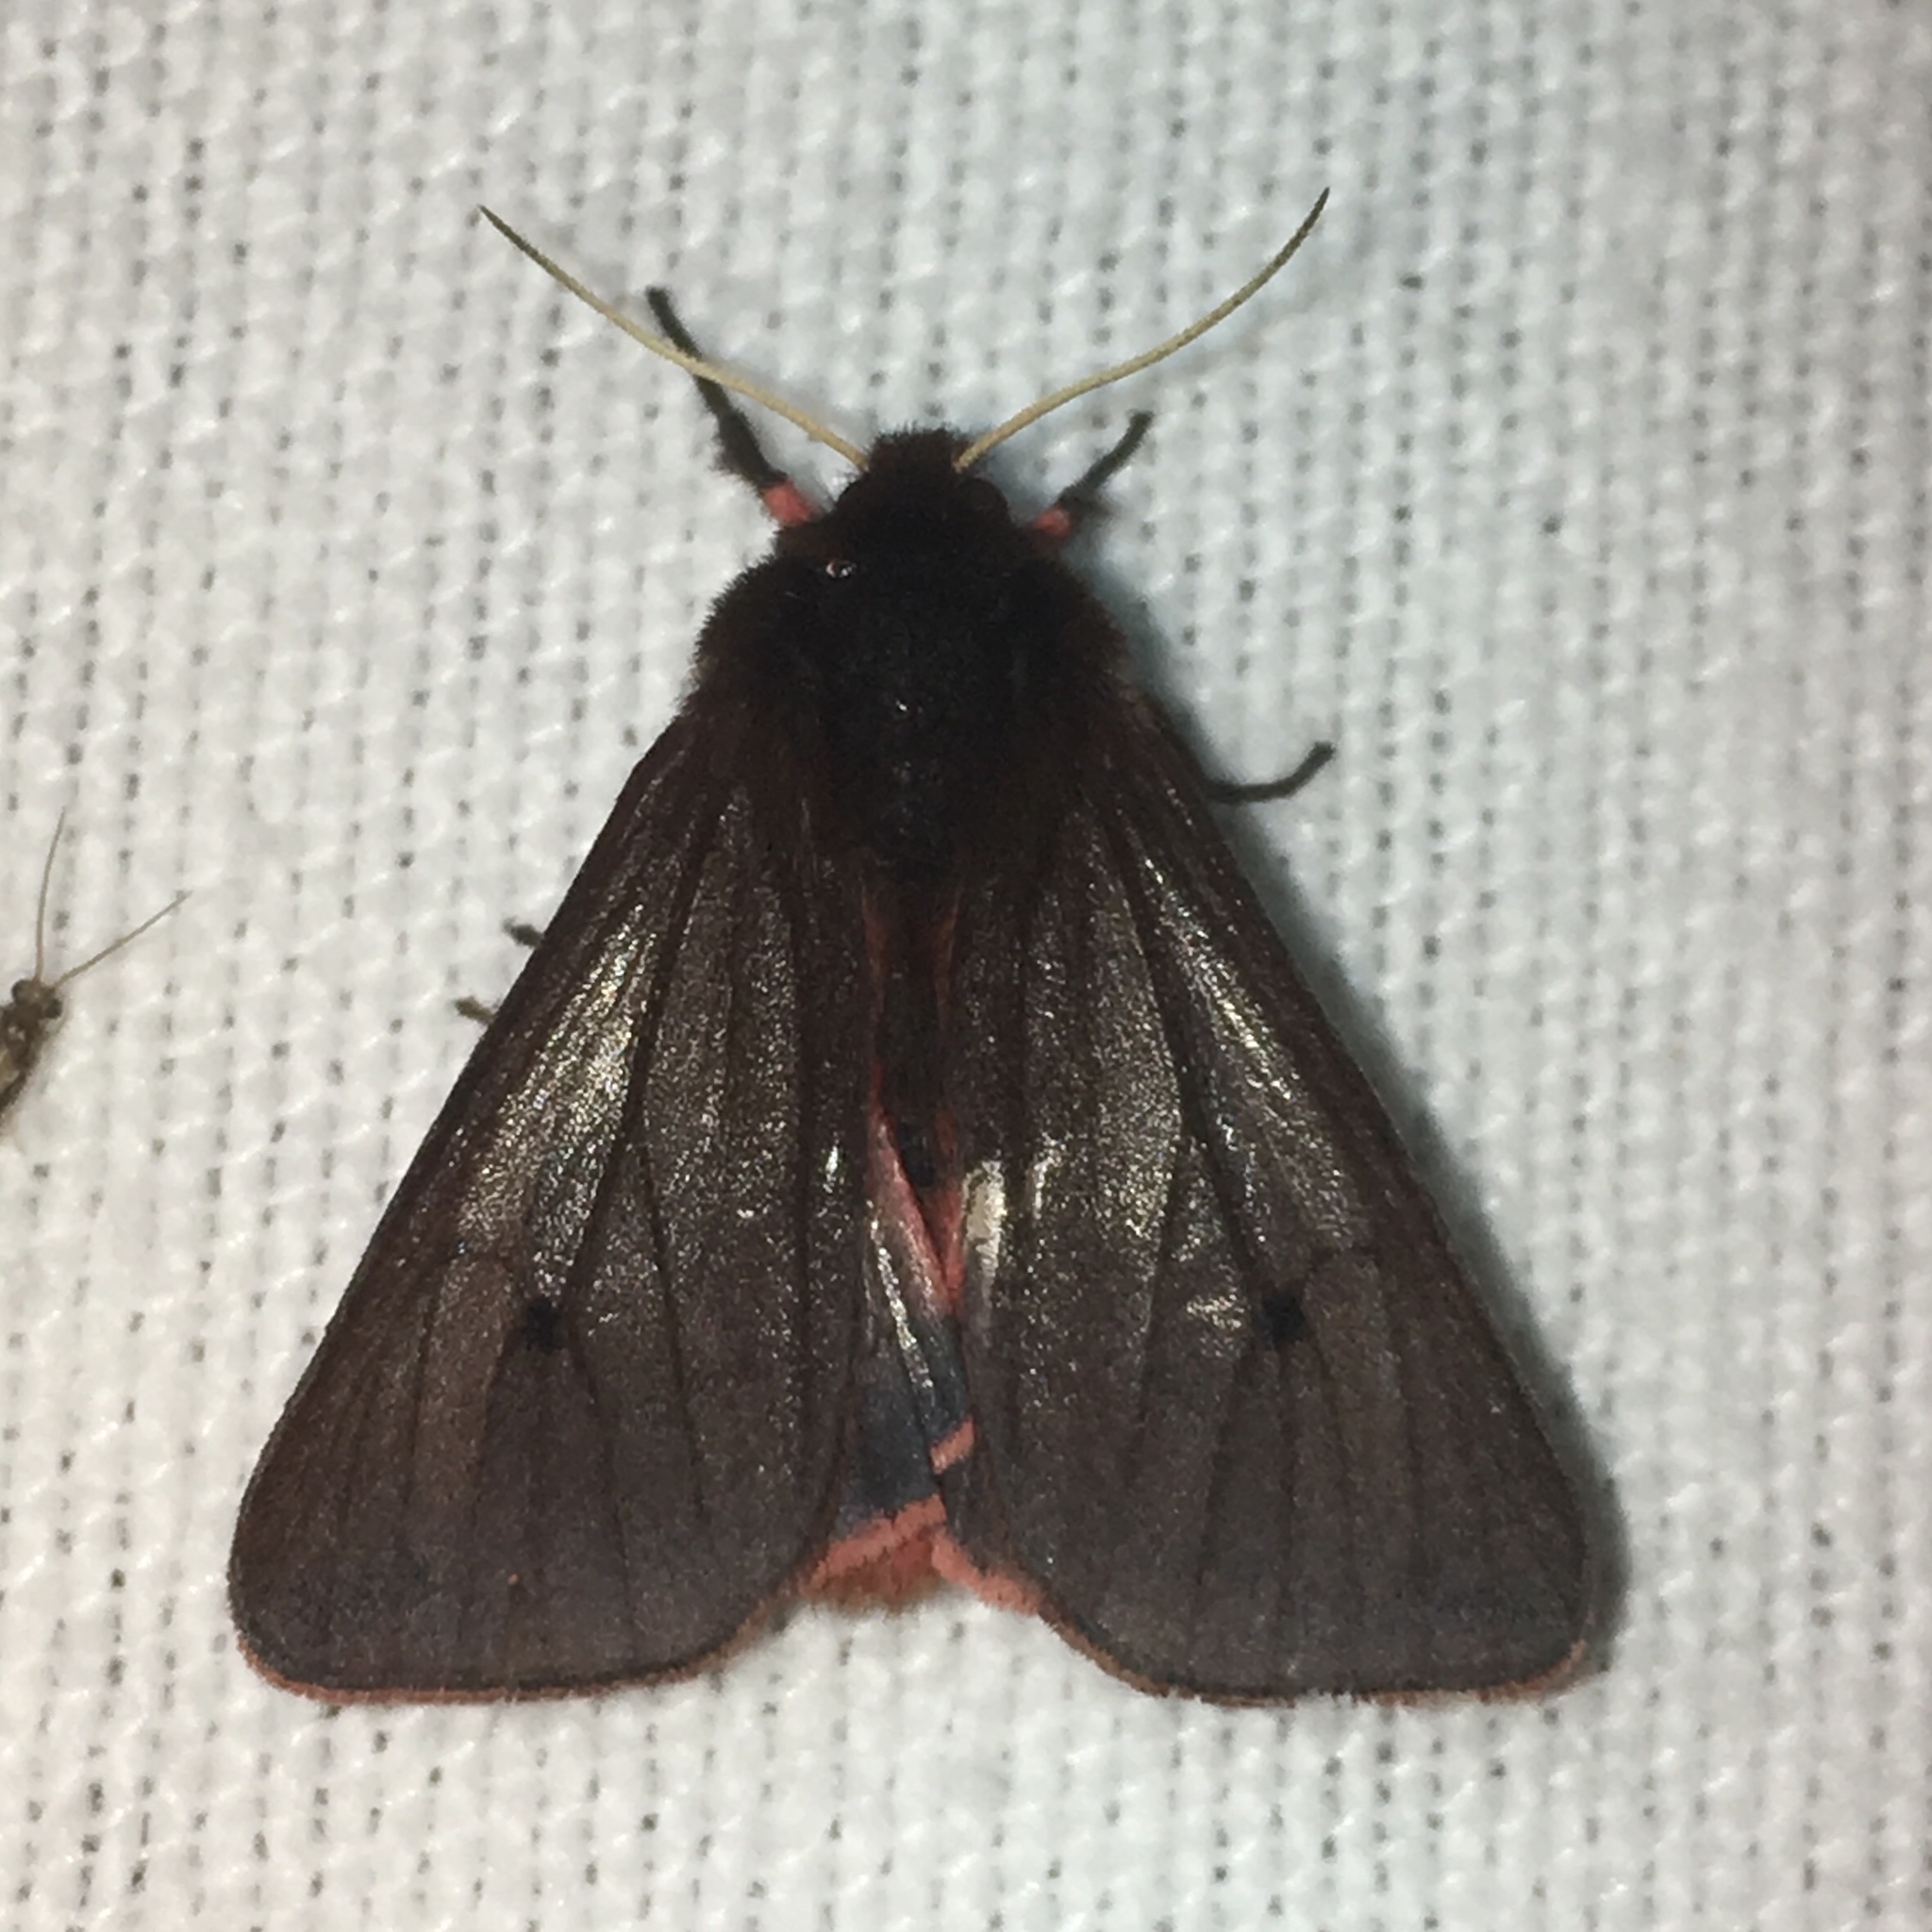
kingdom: Animalia
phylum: Arthropoda
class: Insecta
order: Lepidoptera
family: Erebidae
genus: Phragmatobia
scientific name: Phragmatobia fuliginosa
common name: Ruby tiger
